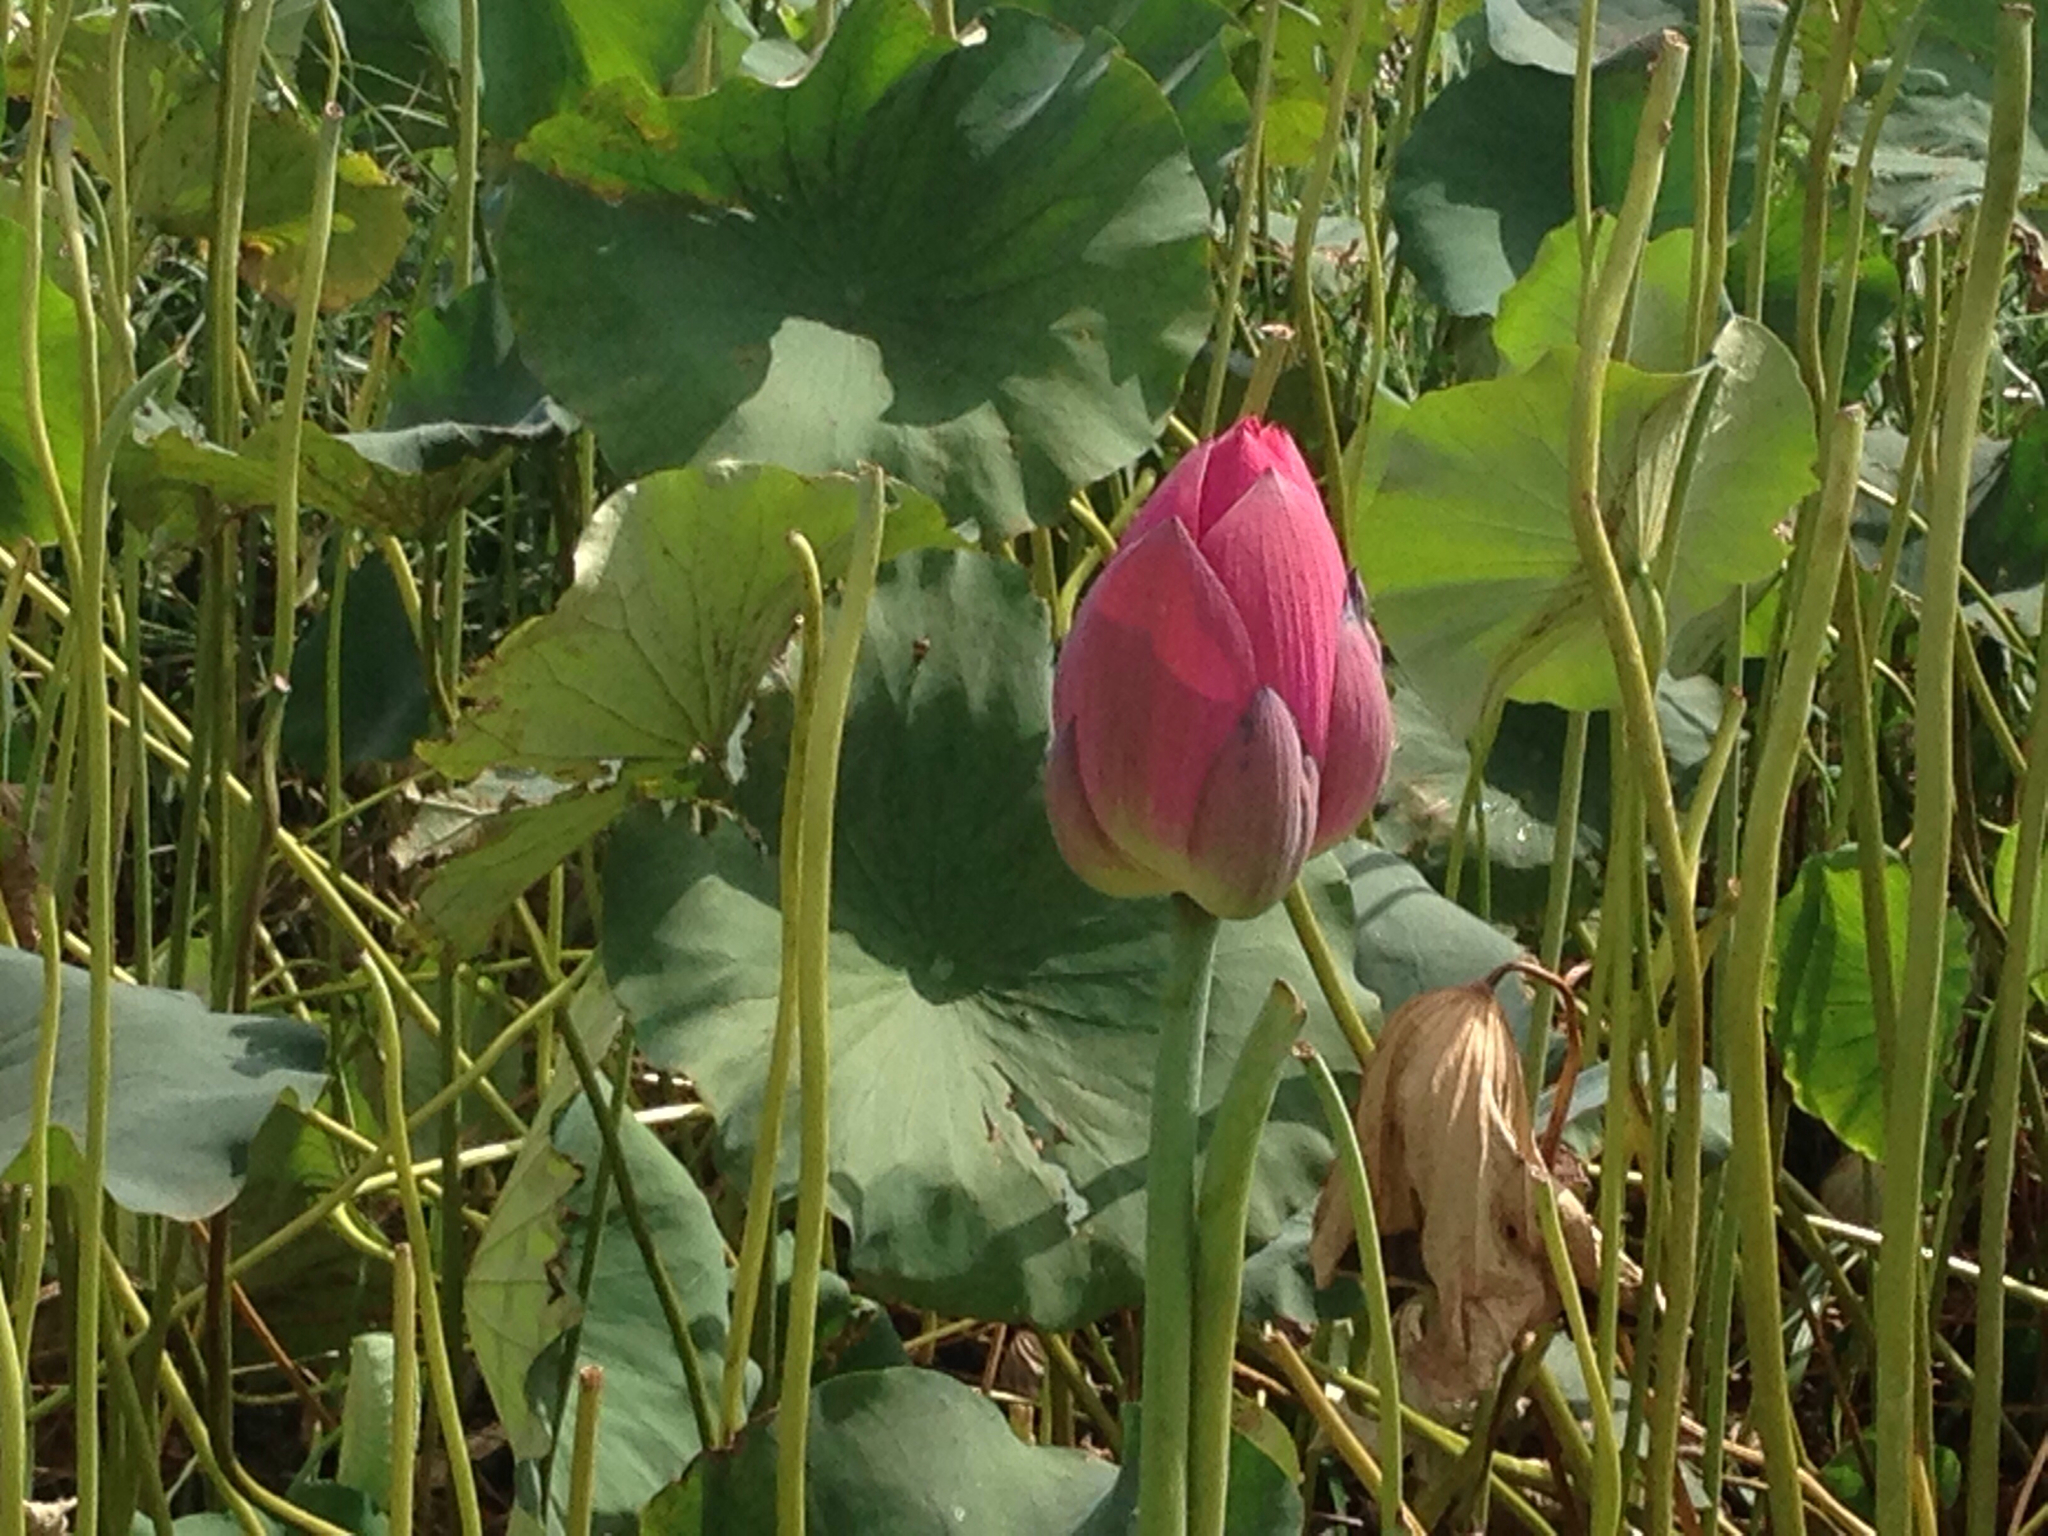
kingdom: Plantae
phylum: Tracheophyta
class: Magnoliopsida
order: Proteales
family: Nelumbonaceae
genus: Nelumbo
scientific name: Nelumbo nucifera
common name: Sacred lotus
